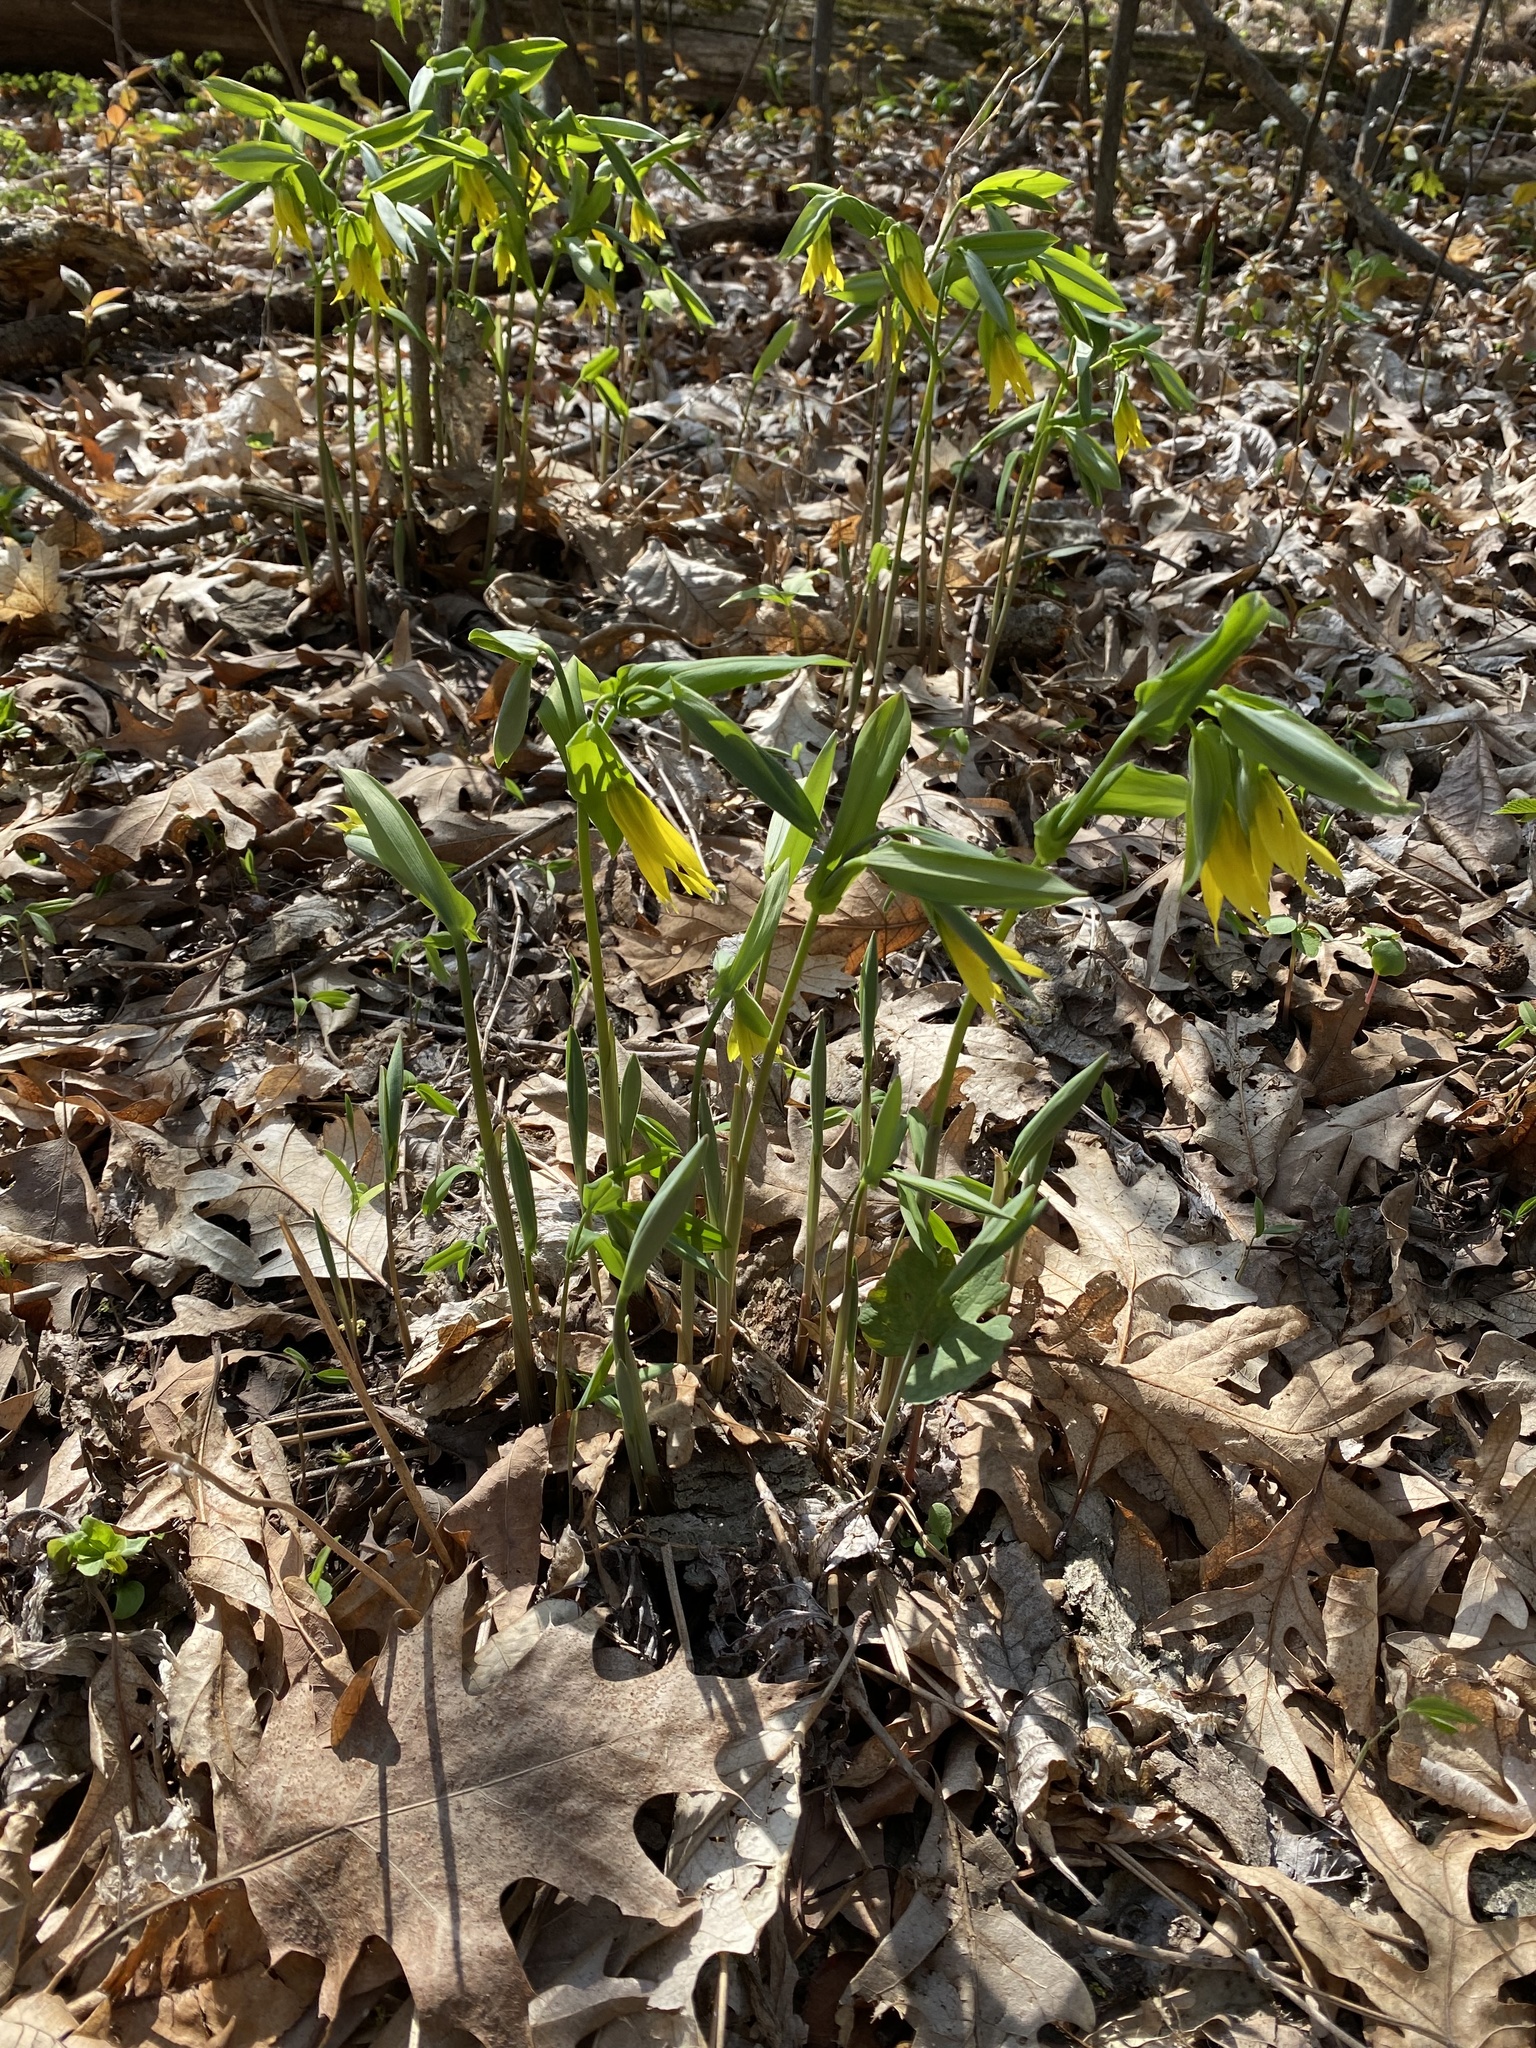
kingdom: Plantae
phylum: Tracheophyta
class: Liliopsida
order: Liliales
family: Colchicaceae
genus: Uvularia
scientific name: Uvularia grandiflora
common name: Bellwort
